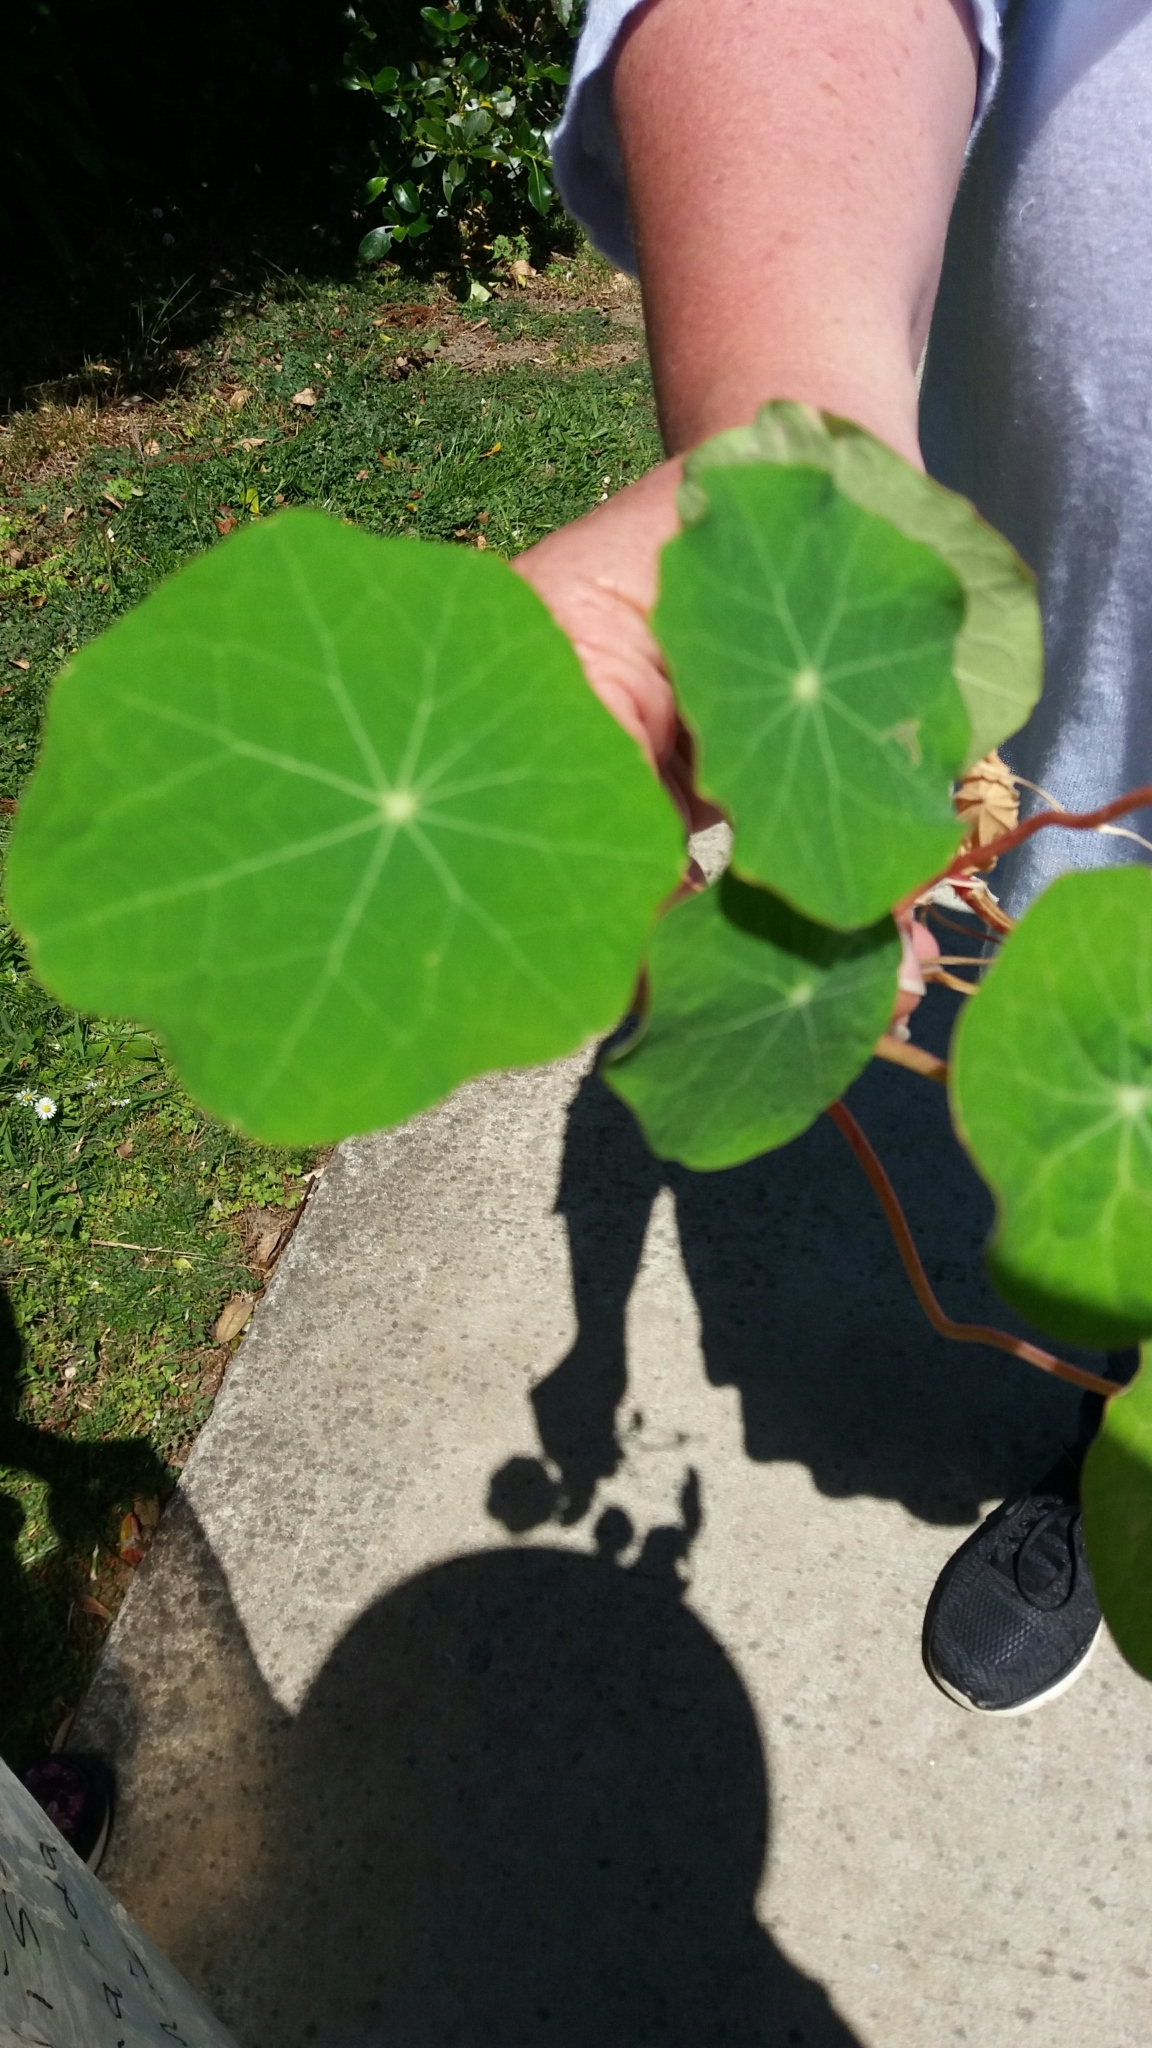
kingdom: Plantae
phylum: Tracheophyta
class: Magnoliopsida
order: Brassicales
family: Tropaeolaceae
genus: Tropaeolum
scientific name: Tropaeolum majus
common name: Nasturtium
